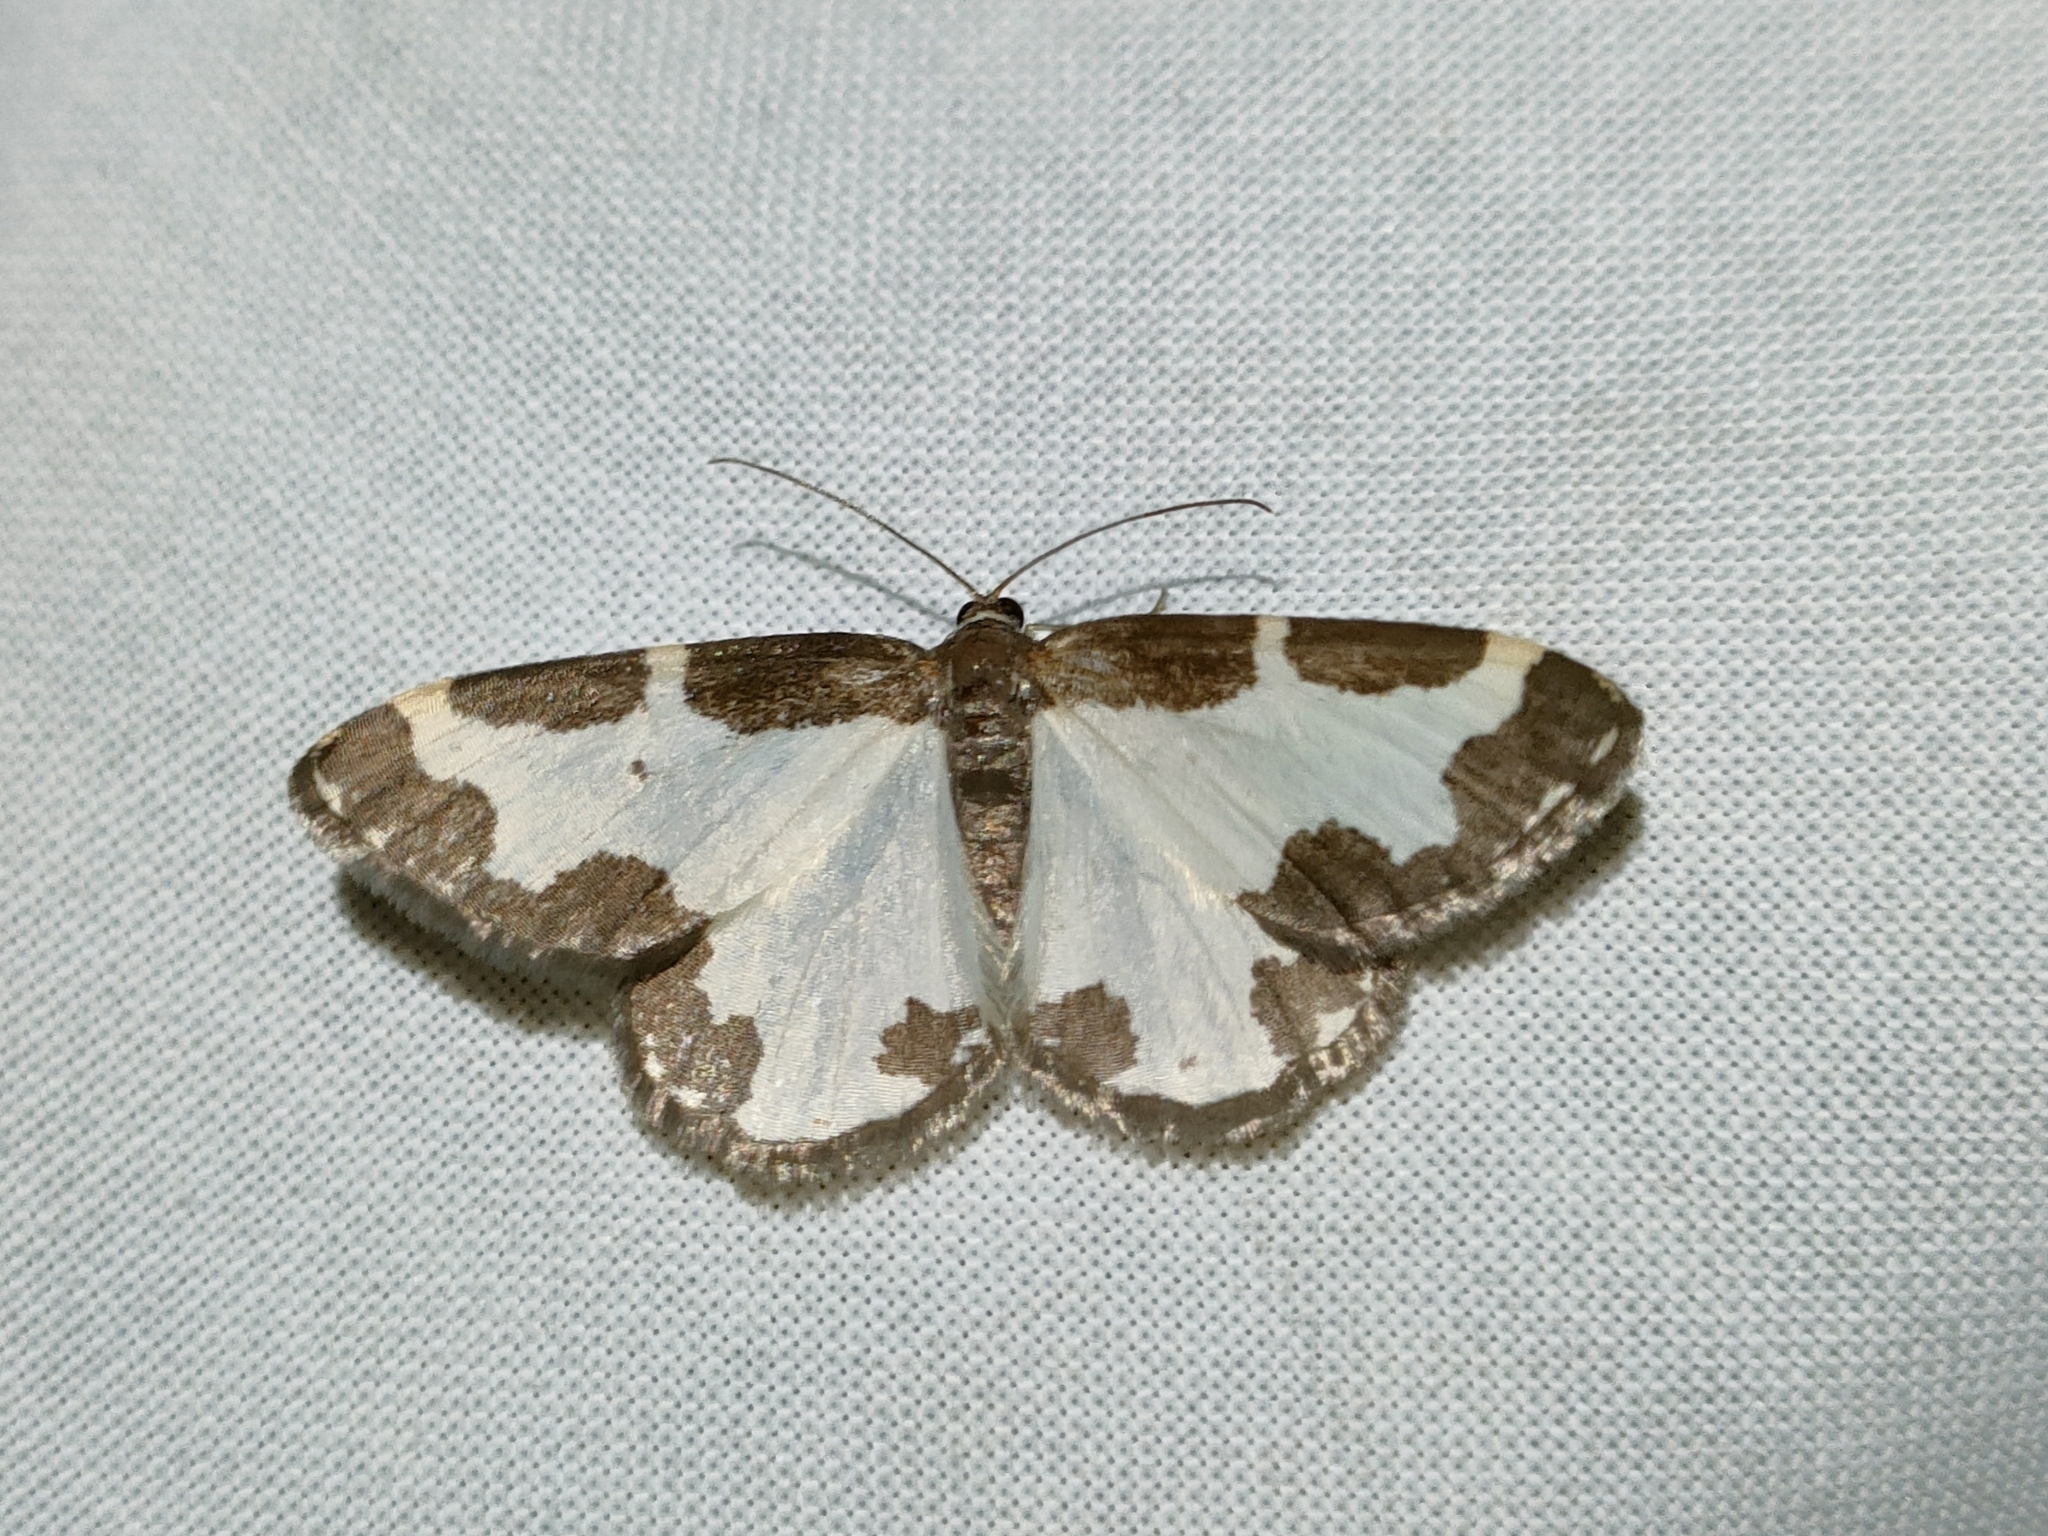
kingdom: Animalia
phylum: Arthropoda
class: Insecta
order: Lepidoptera
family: Geometridae
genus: Lomaspilis
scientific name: Lomaspilis marginata
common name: Clouded border
